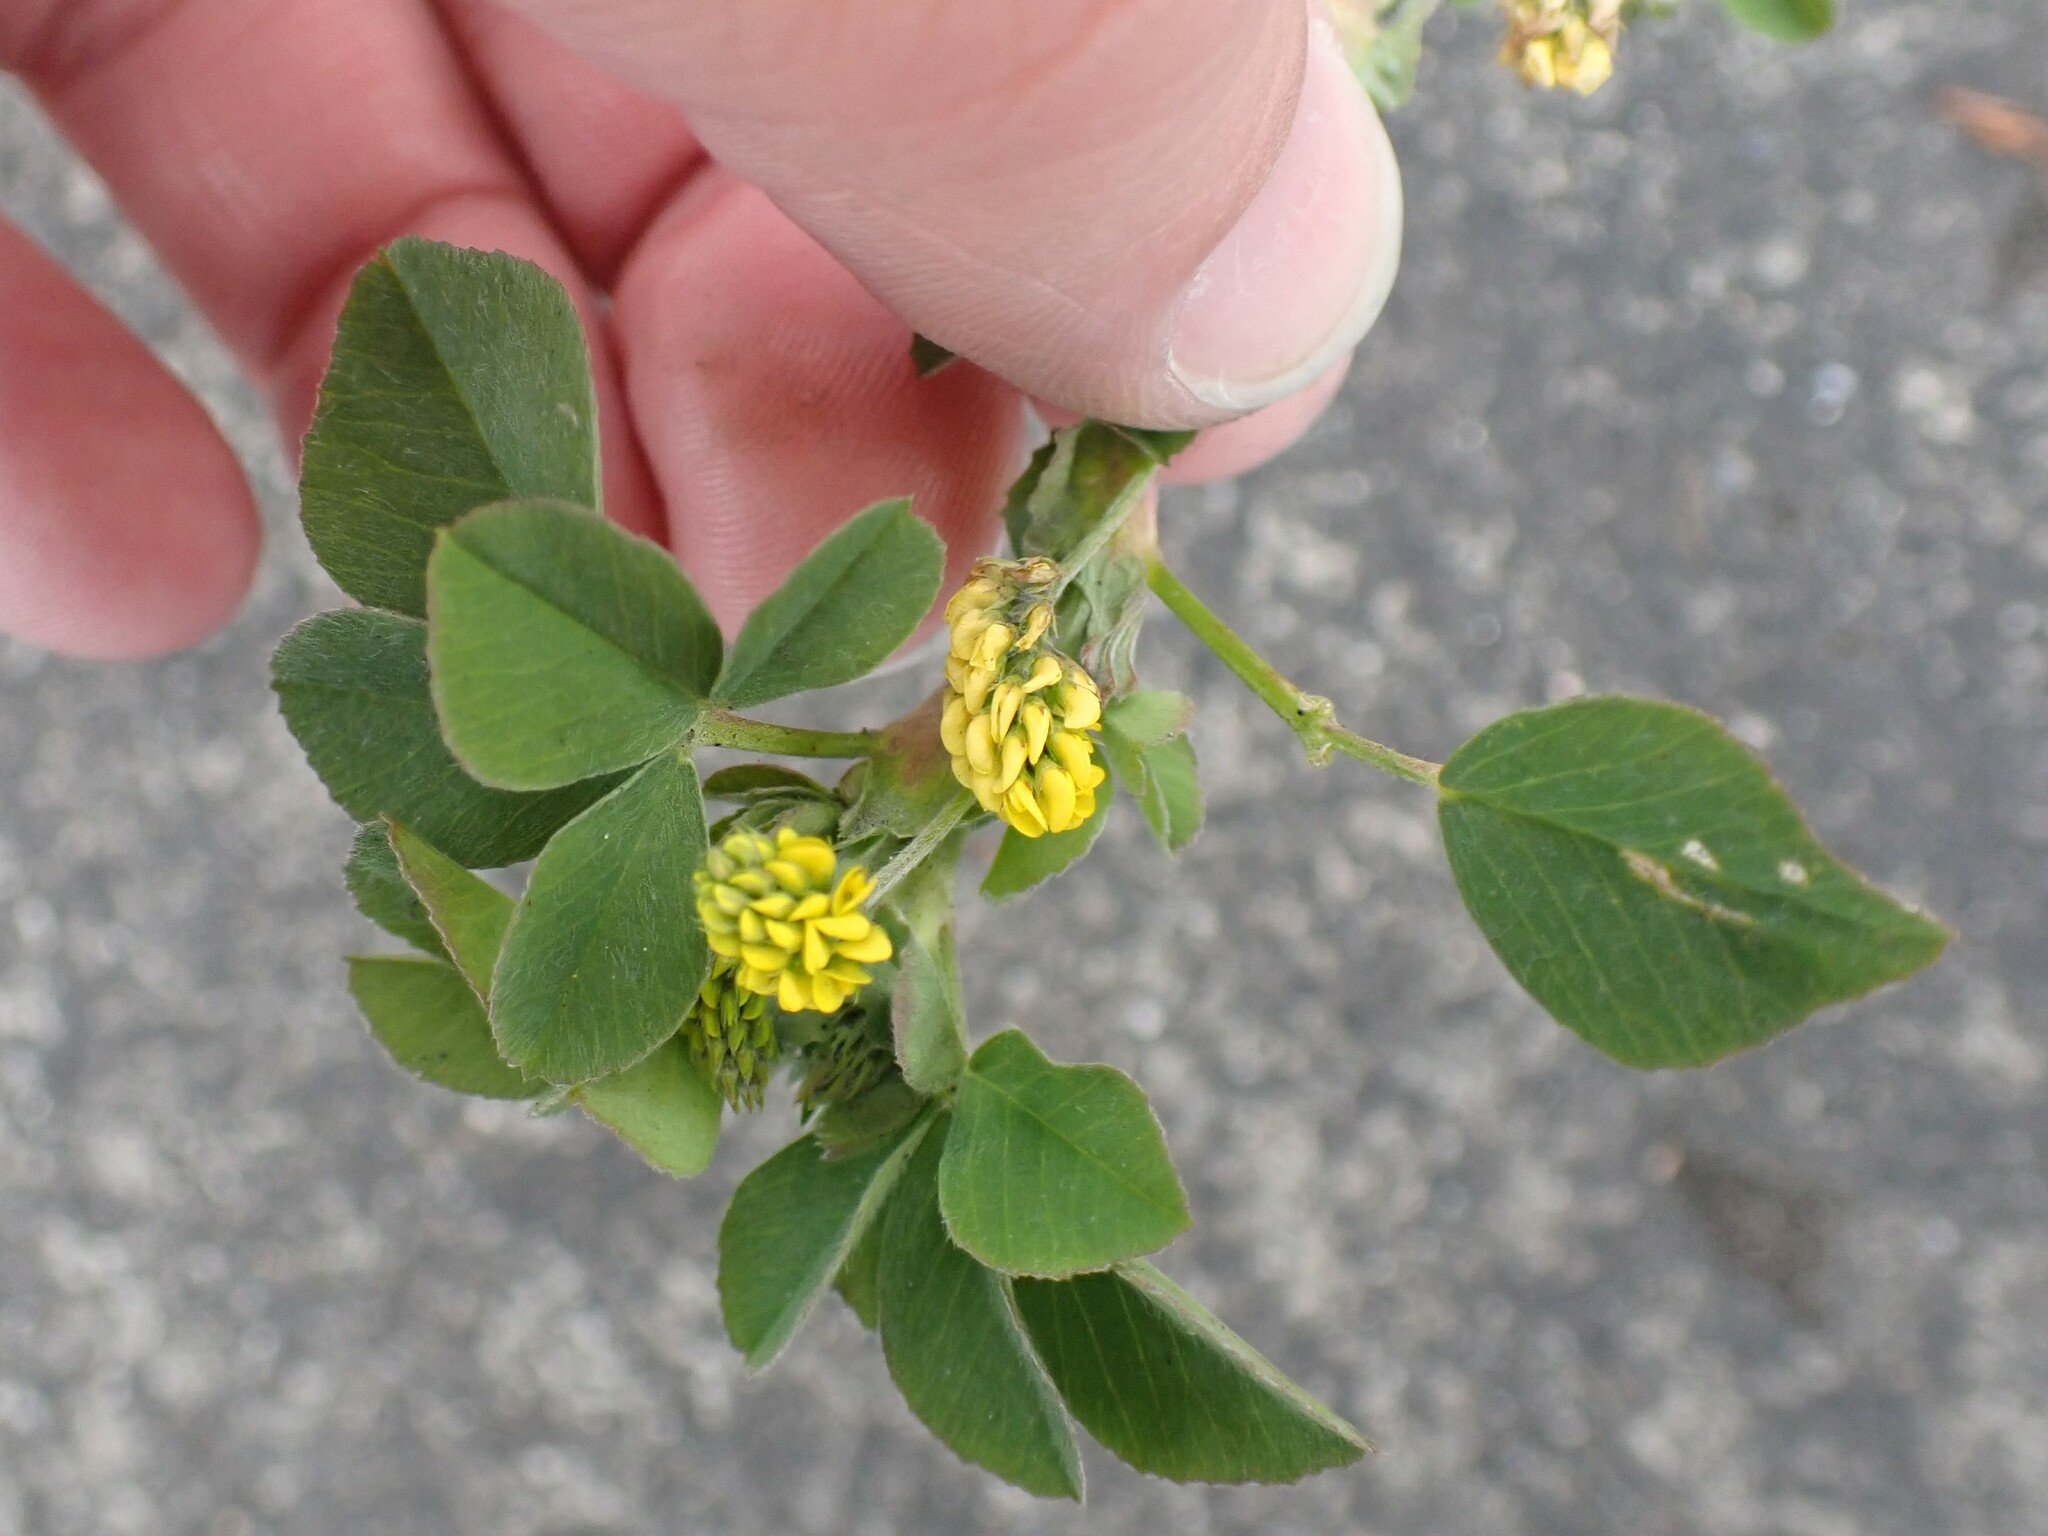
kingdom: Plantae
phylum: Tracheophyta
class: Magnoliopsida
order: Fabales
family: Fabaceae
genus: Medicago
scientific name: Medicago lupulina
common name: Black medick
